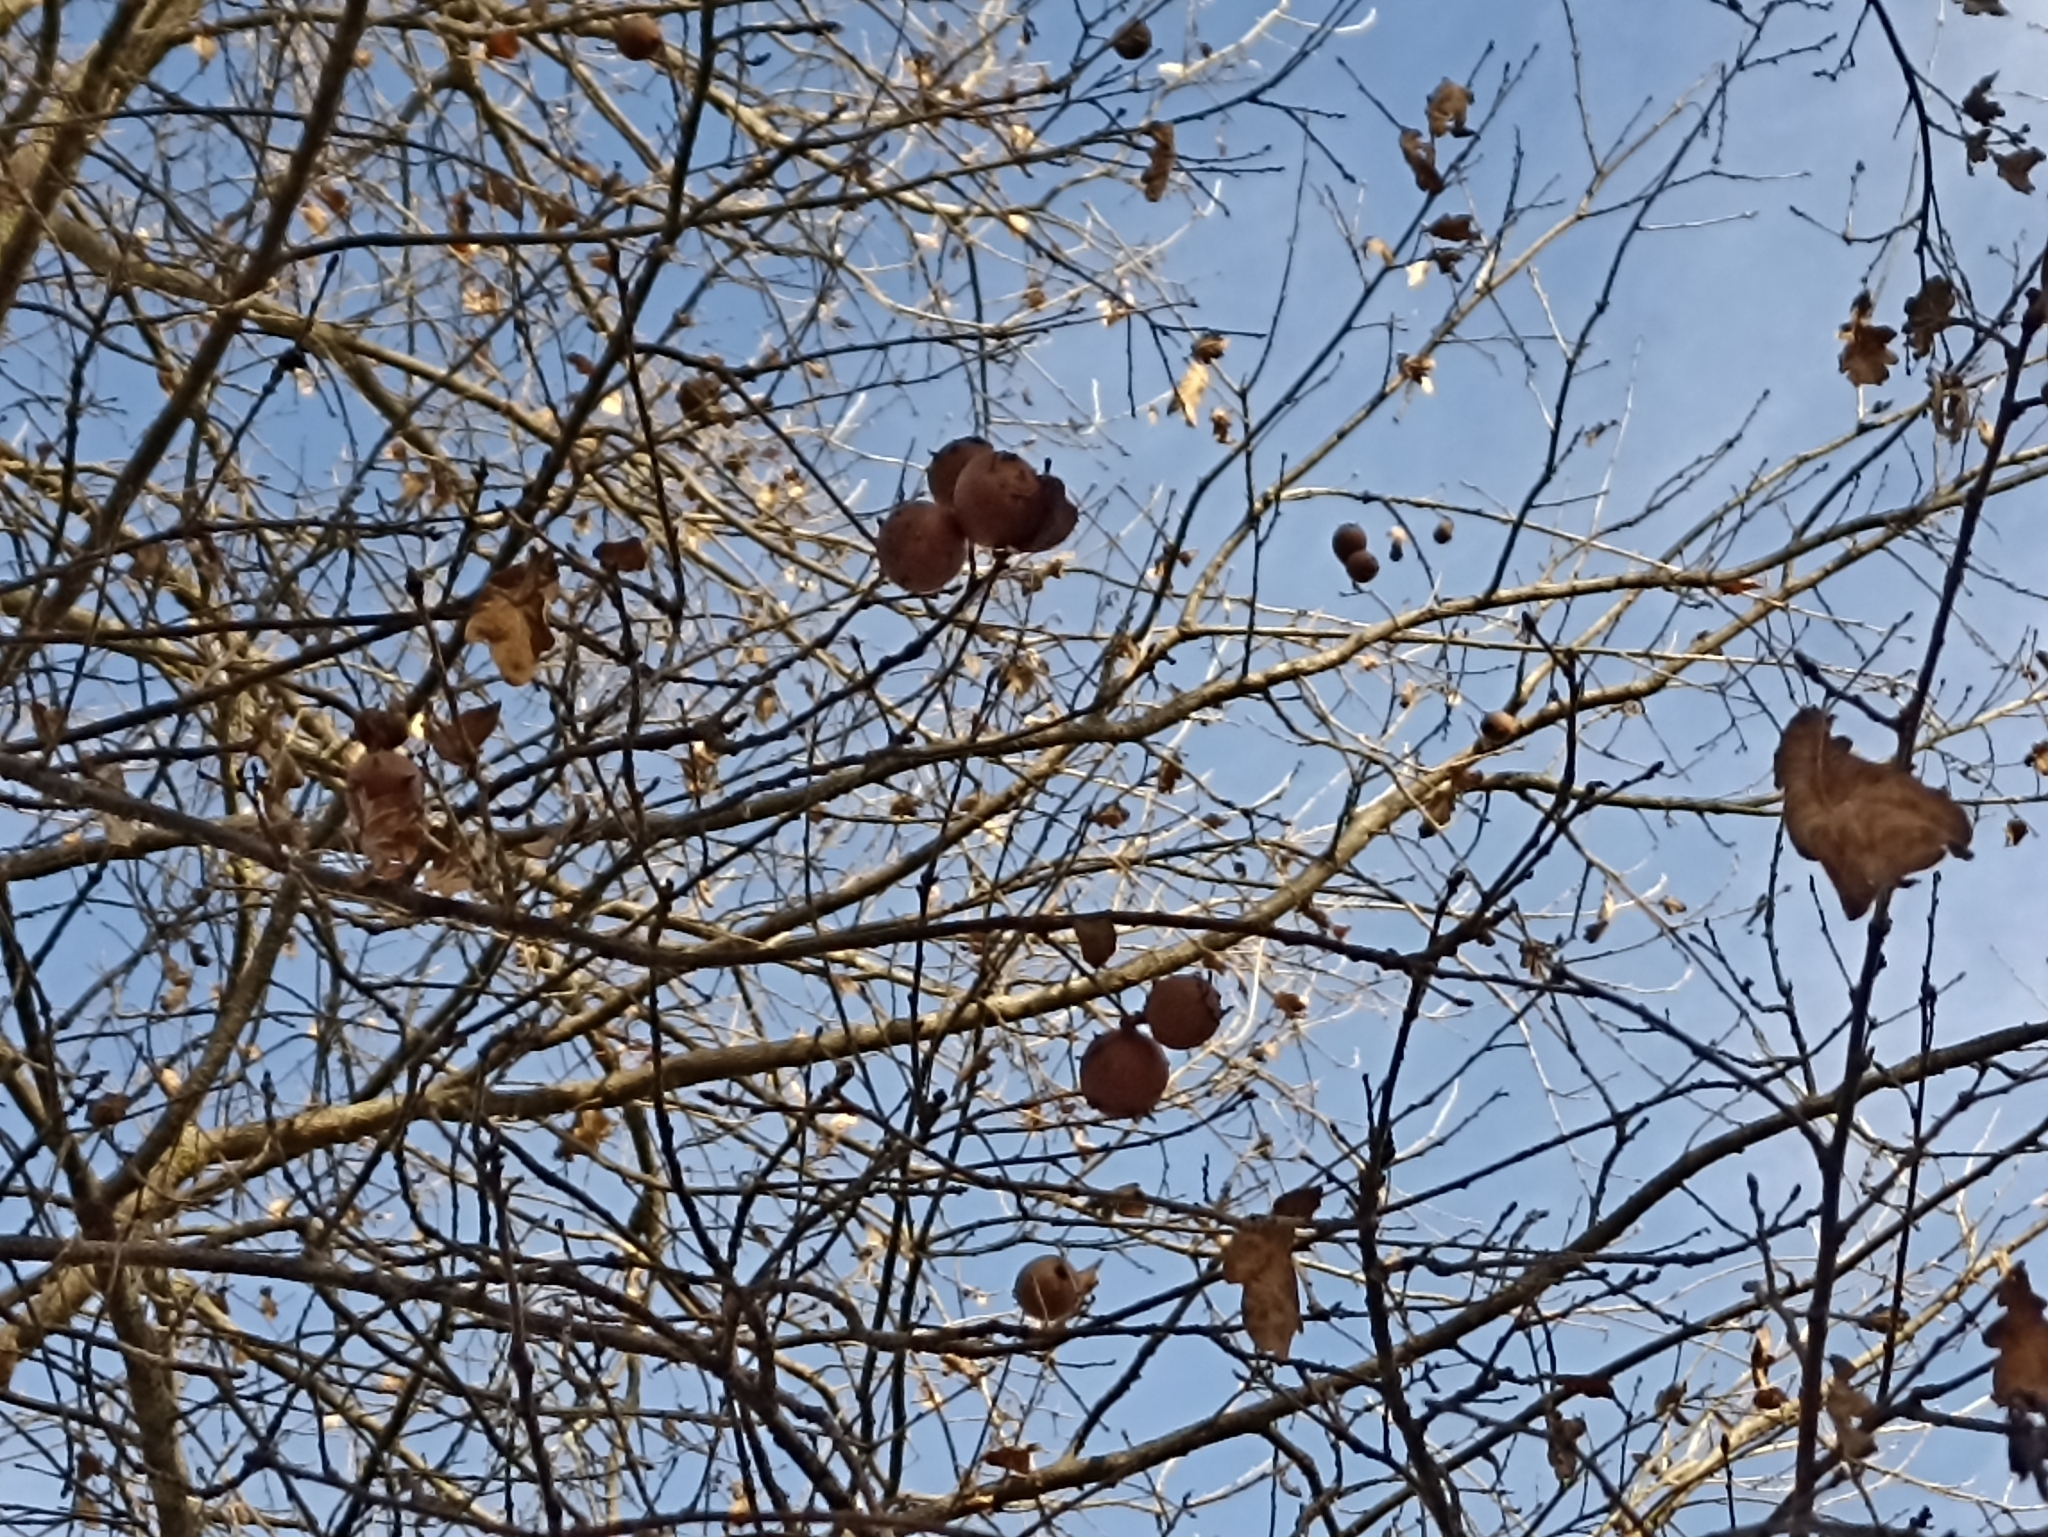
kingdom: Animalia
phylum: Arthropoda
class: Insecta
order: Hymenoptera
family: Cynipidae
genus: Andricus
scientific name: Andricus quercustozae
